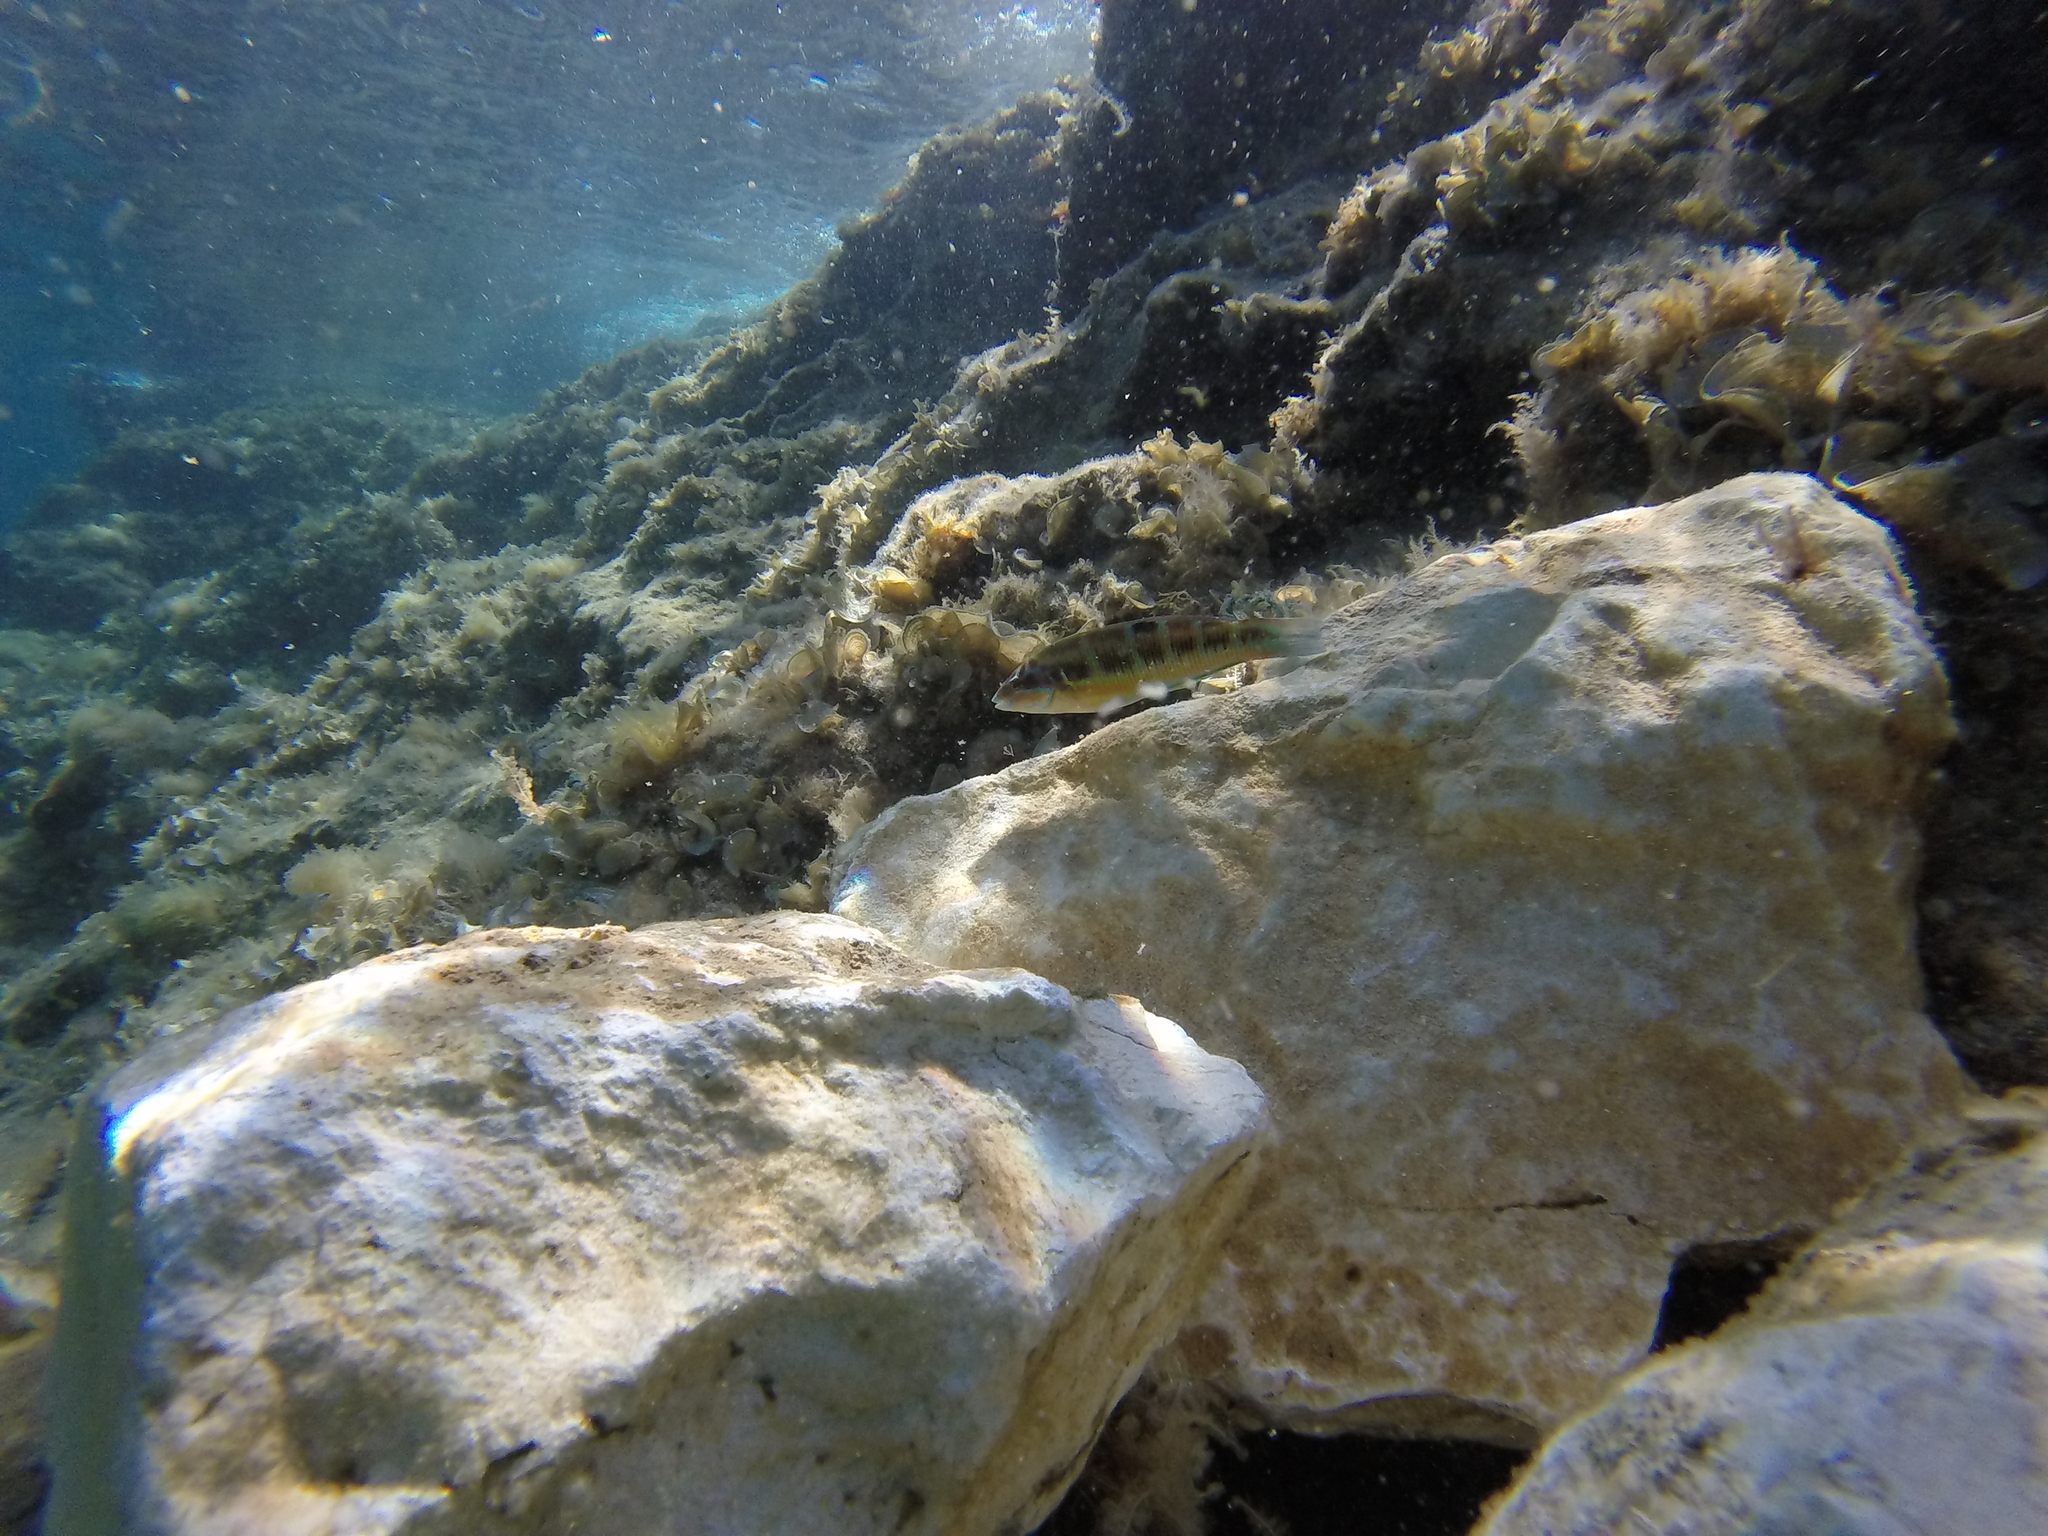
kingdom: Animalia
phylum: Chordata
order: Perciformes
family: Labridae
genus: Thalassoma
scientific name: Thalassoma pavo
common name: Ornate wrasse
